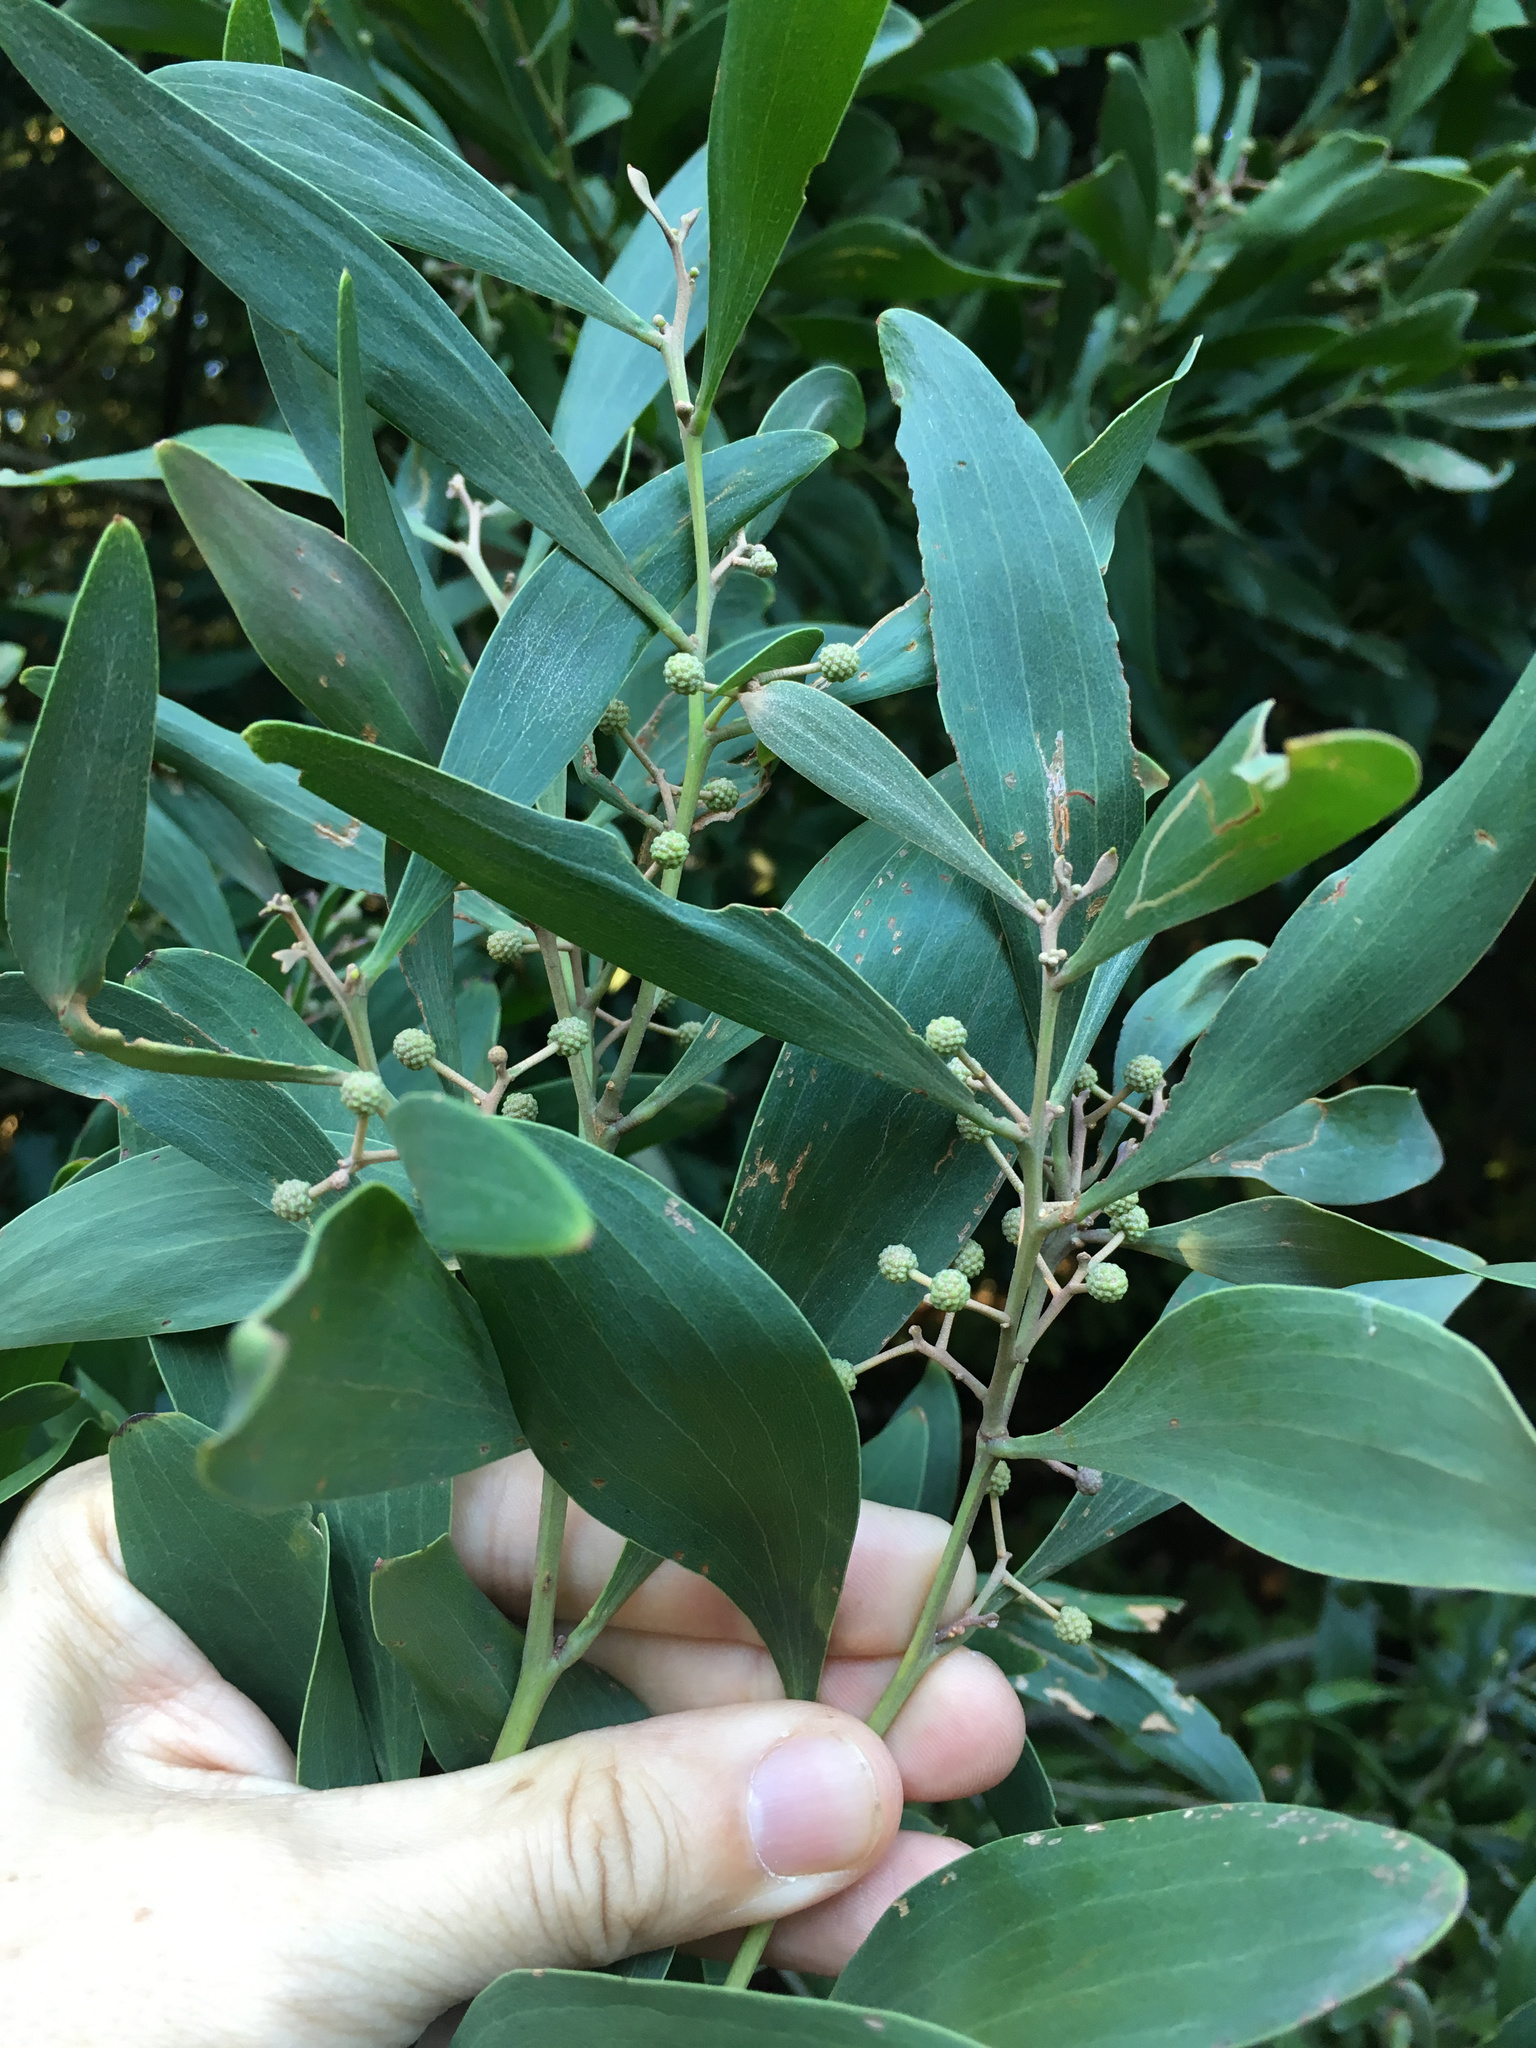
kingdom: Plantae
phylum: Tracheophyta
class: Magnoliopsida
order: Fabales
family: Fabaceae
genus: Acacia
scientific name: Acacia melanoxylon
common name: Blackwood
